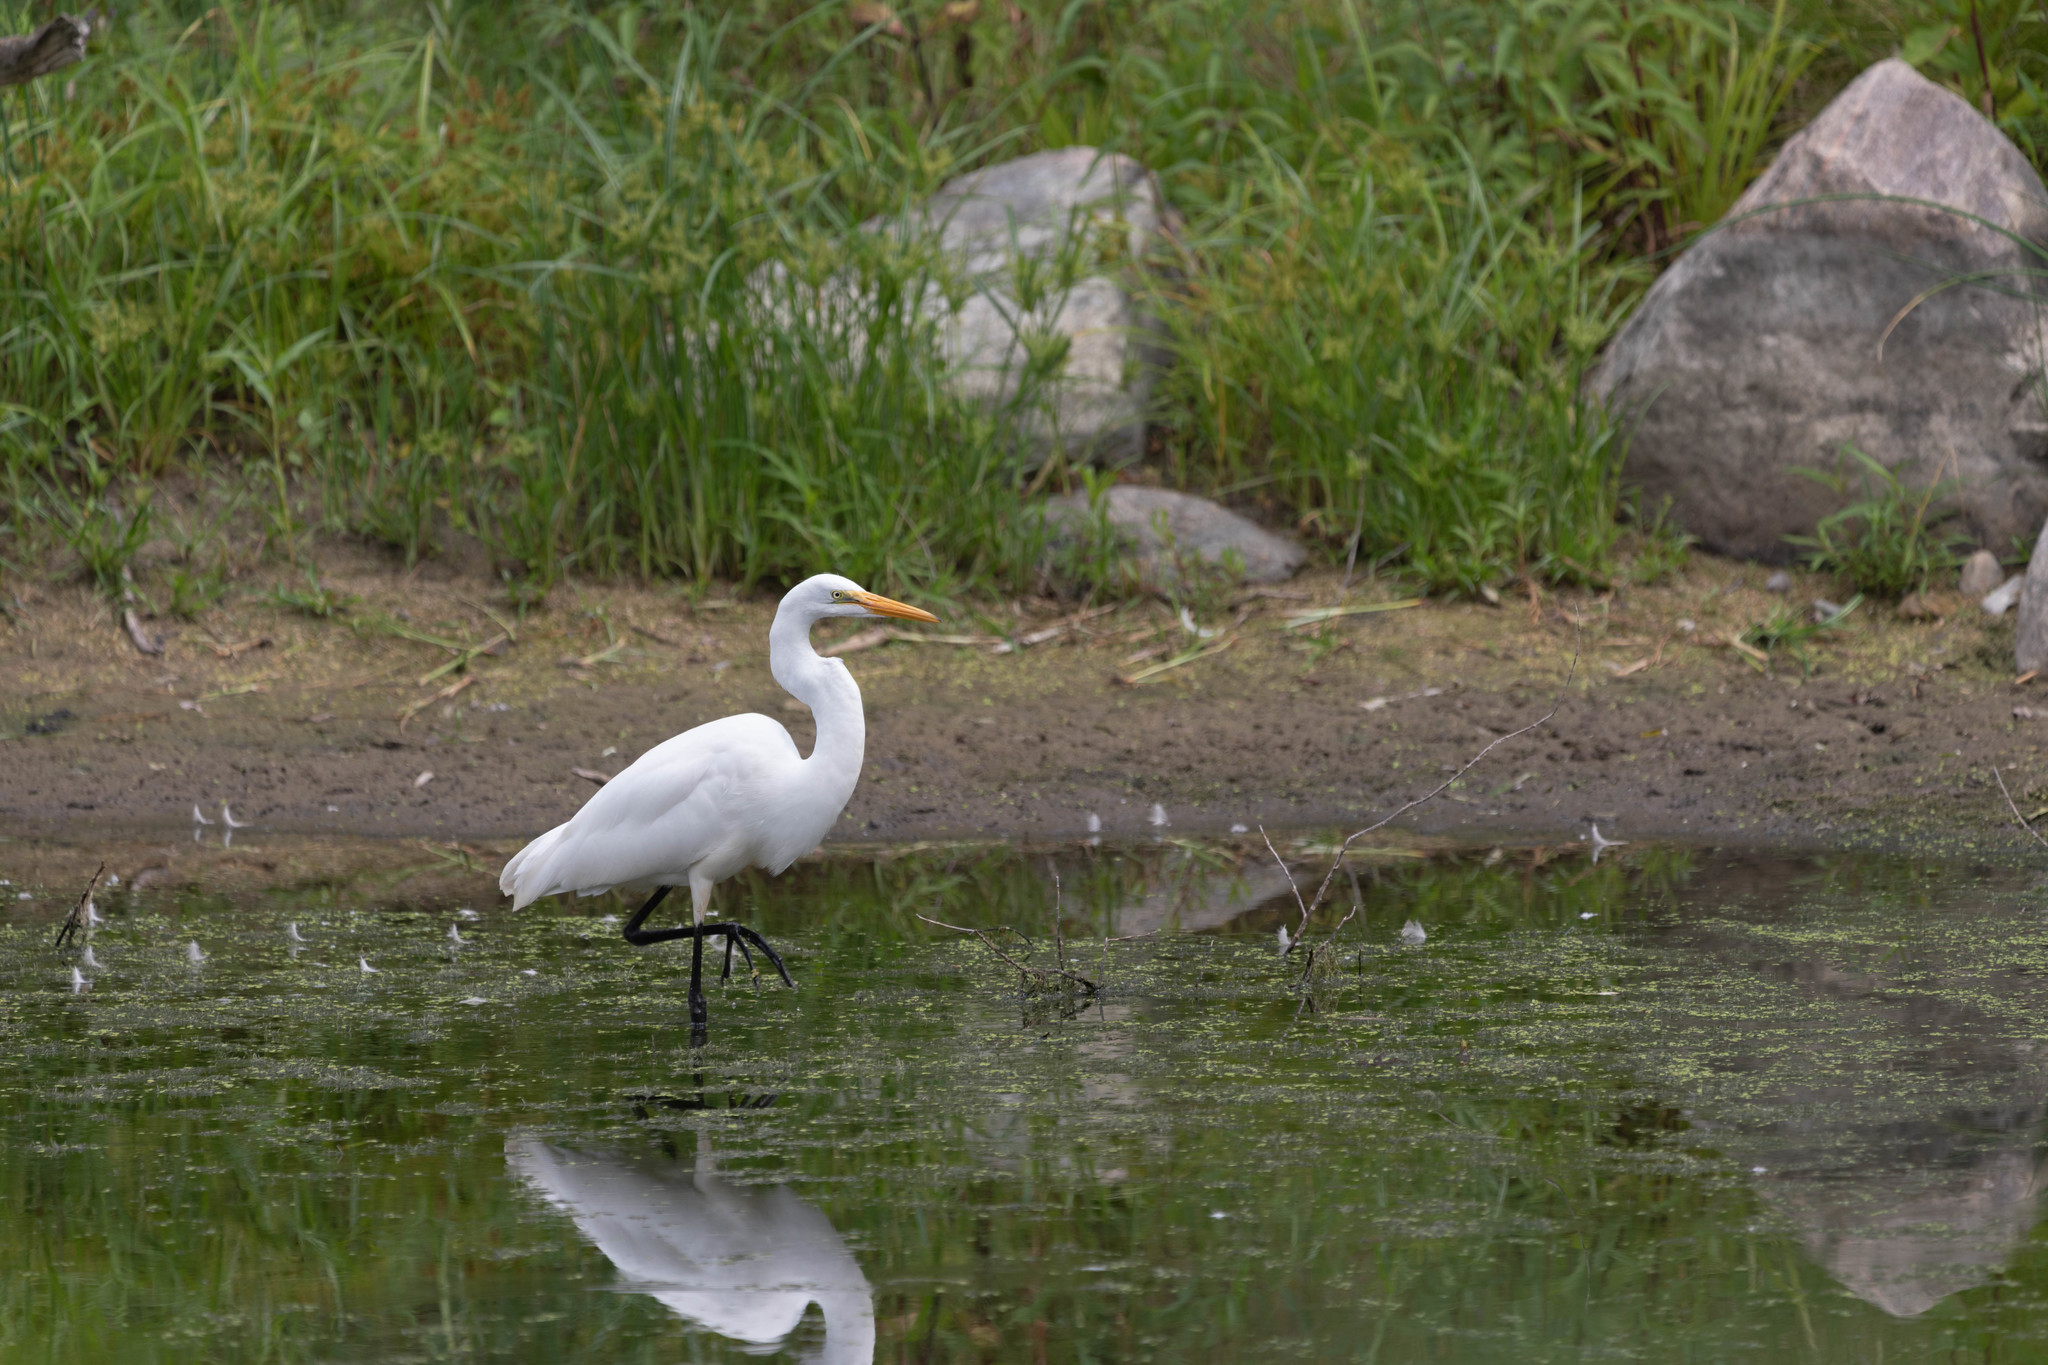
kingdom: Animalia
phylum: Chordata
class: Aves
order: Pelecaniformes
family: Ardeidae
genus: Ardea
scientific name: Ardea alba
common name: Great egret
